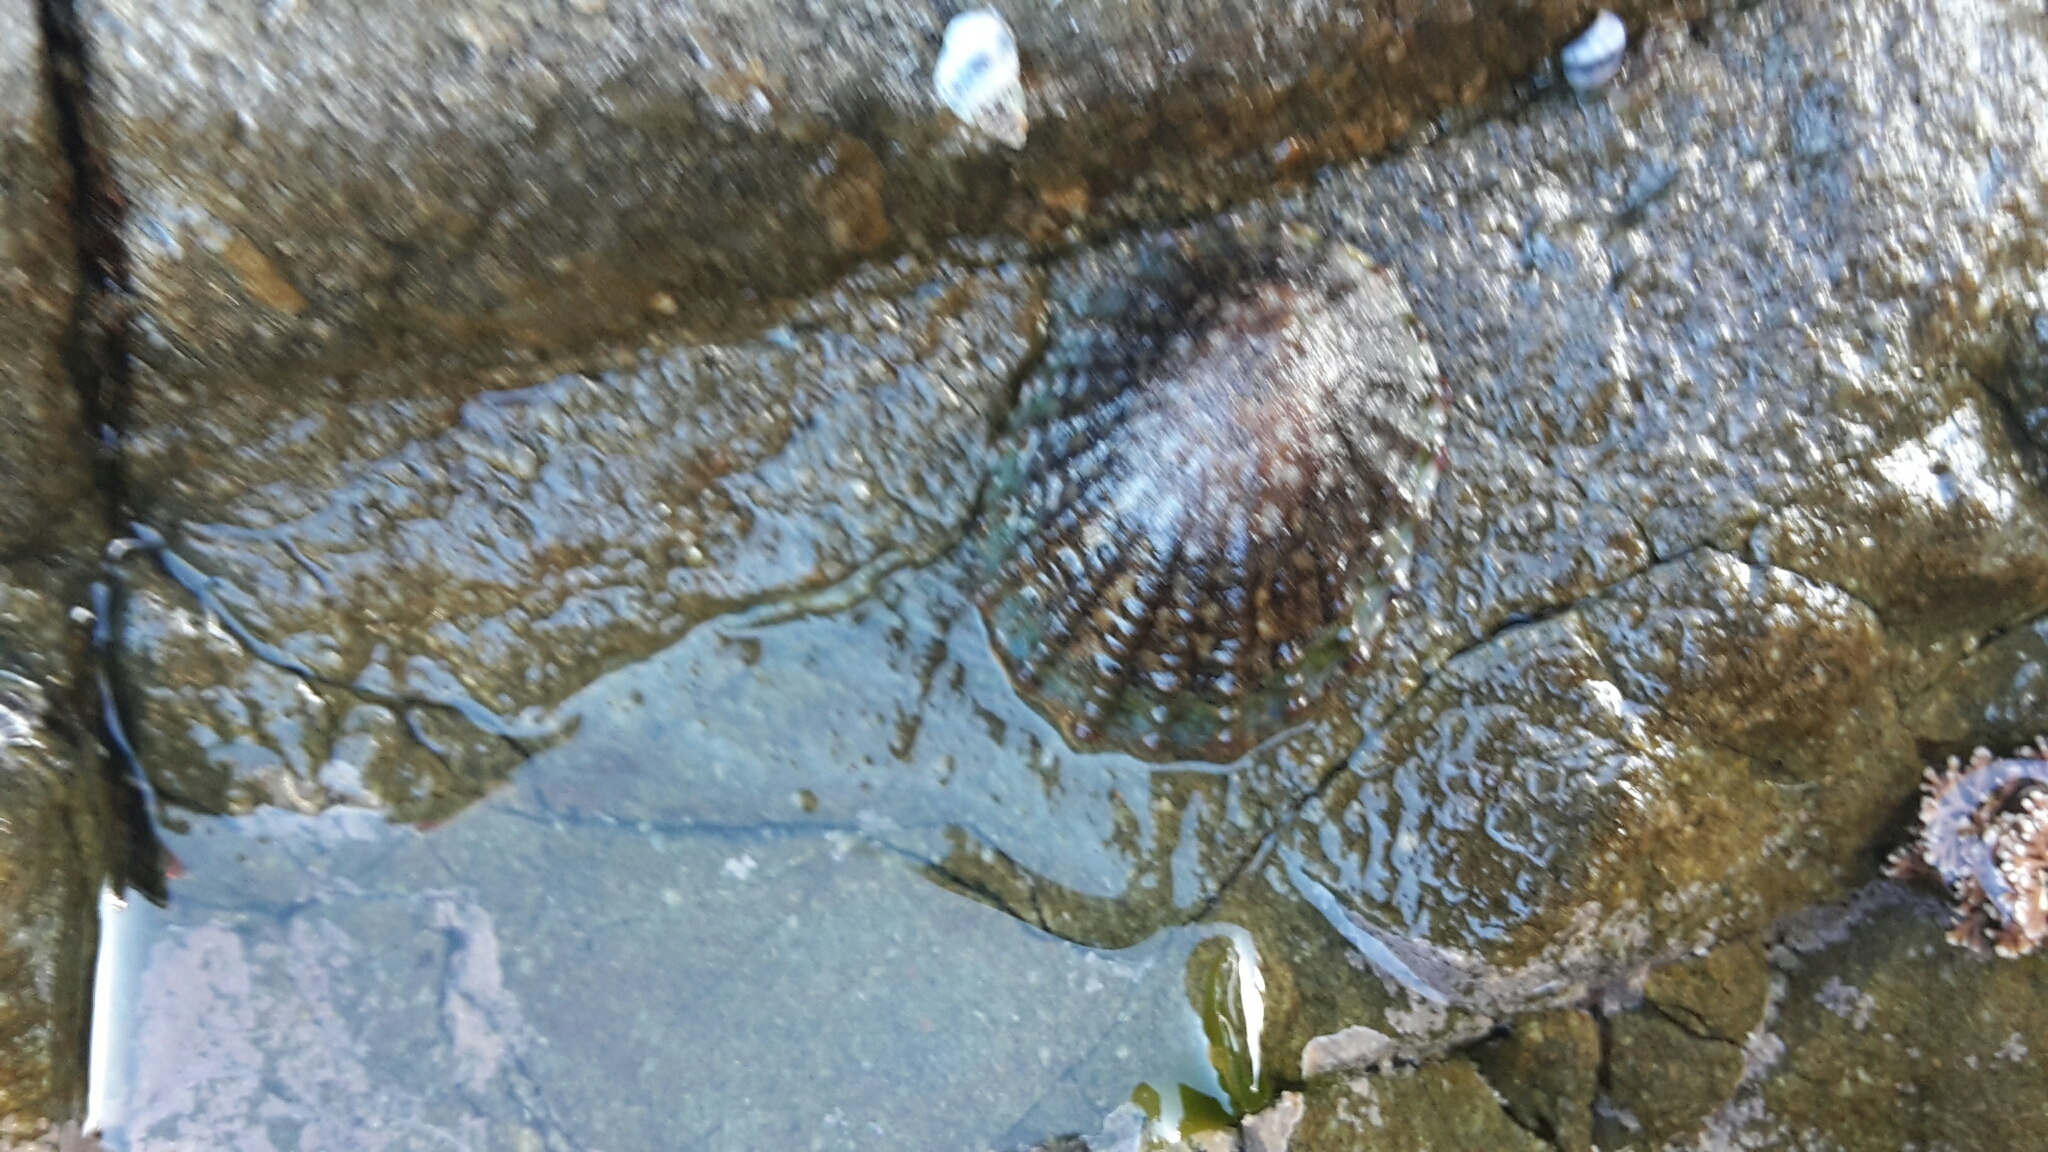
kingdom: Animalia
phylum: Mollusca
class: Gastropoda
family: Nacellidae
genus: Cellana
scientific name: Cellana denticulata
